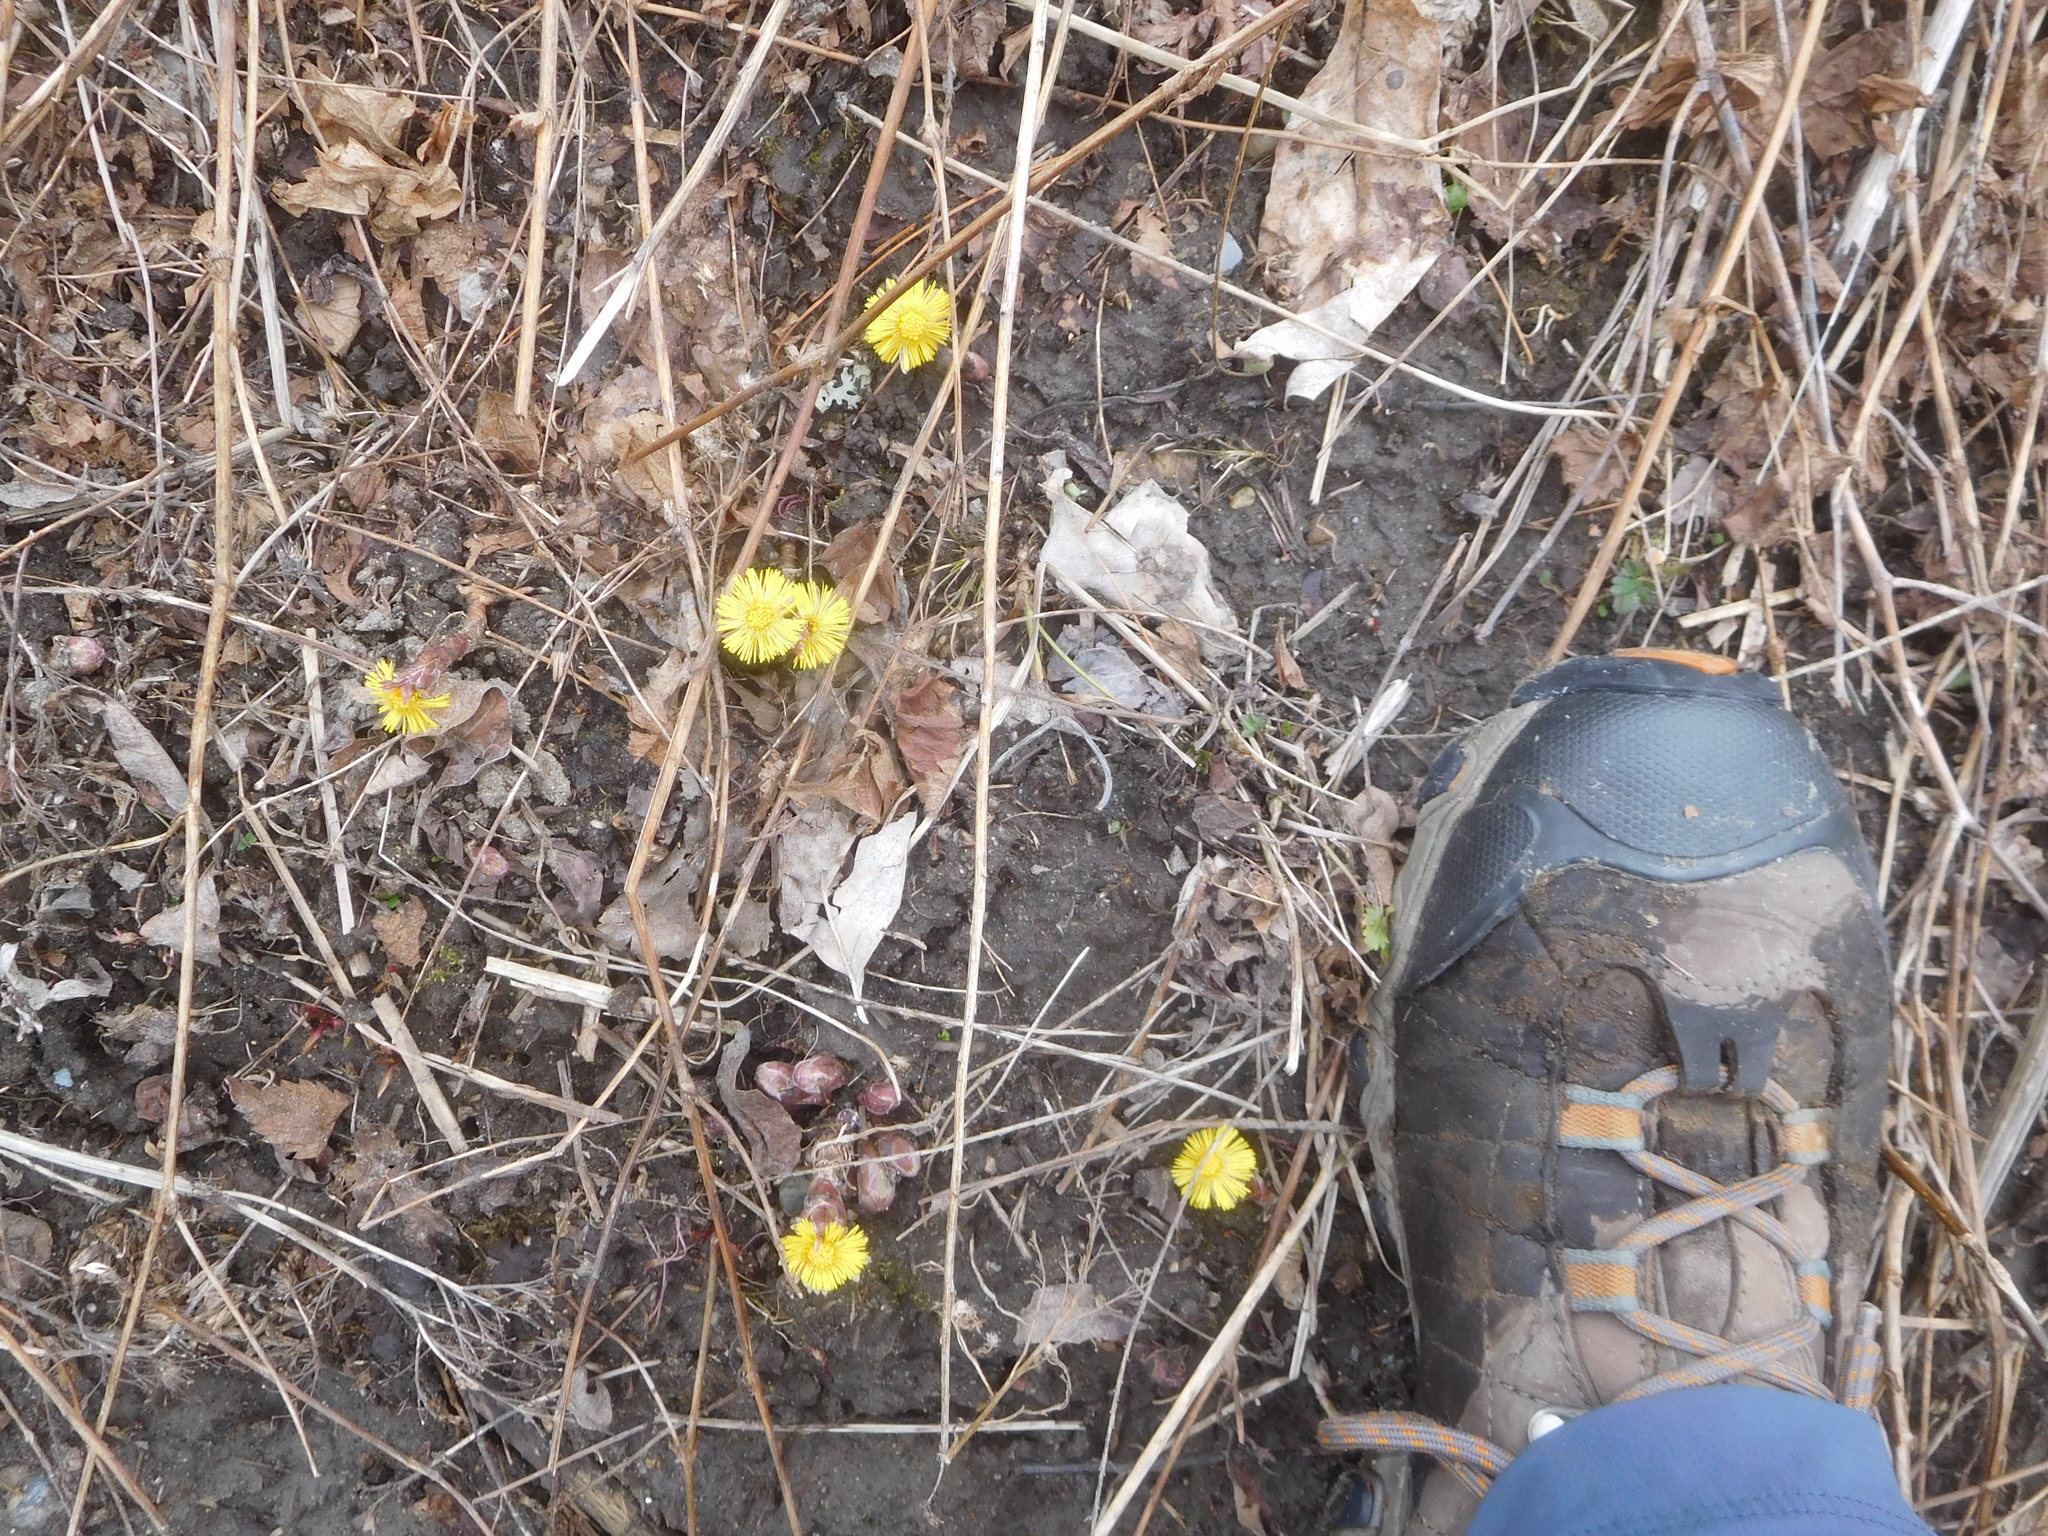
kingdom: Plantae
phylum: Tracheophyta
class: Magnoliopsida
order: Asterales
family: Asteraceae
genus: Tussilago
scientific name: Tussilago farfara
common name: Coltsfoot
